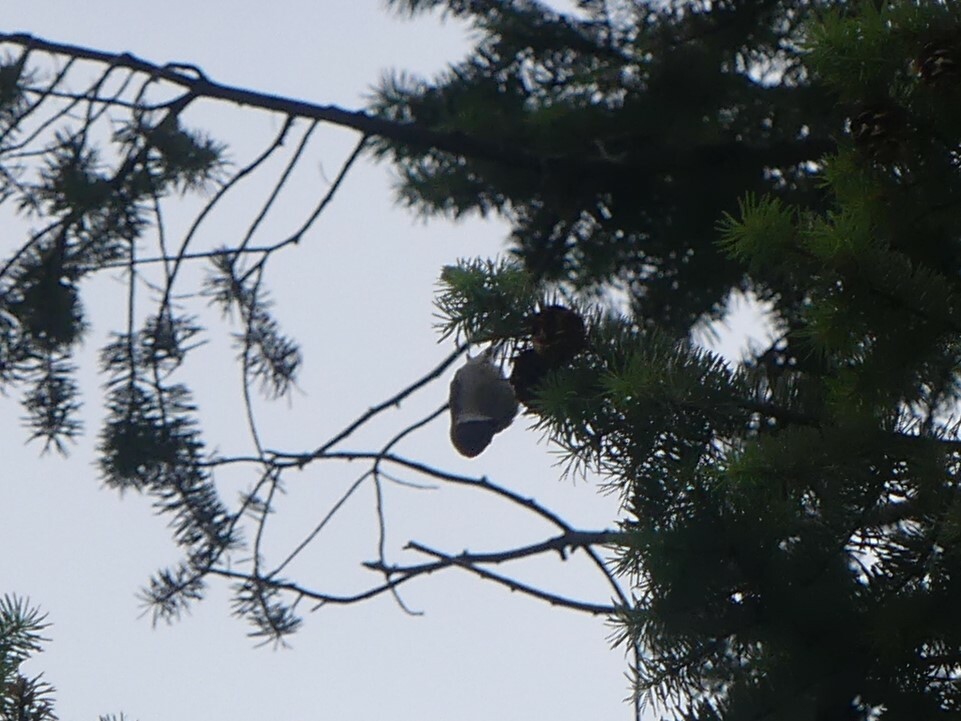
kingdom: Animalia
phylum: Chordata
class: Aves
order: Passeriformes
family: Sittidae
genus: Sitta
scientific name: Sitta carolinensis
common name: White-breasted nuthatch
